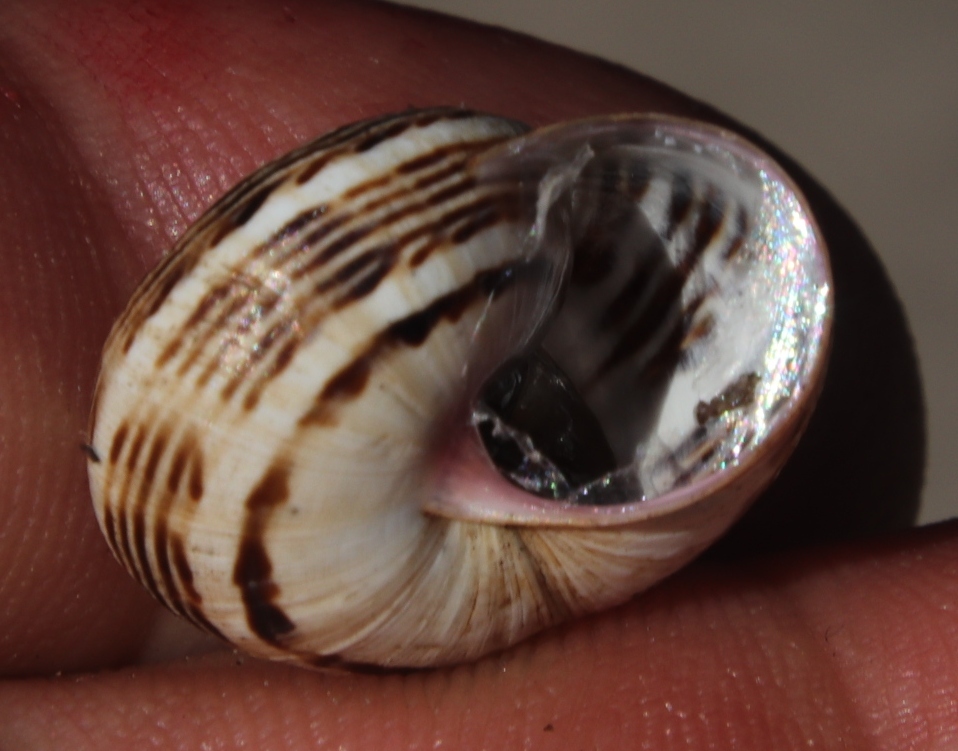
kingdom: Animalia
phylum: Mollusca
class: Gastropoda
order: Stylommatophora
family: Helicidae
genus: Theba
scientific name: Theba pisana
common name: White snail
